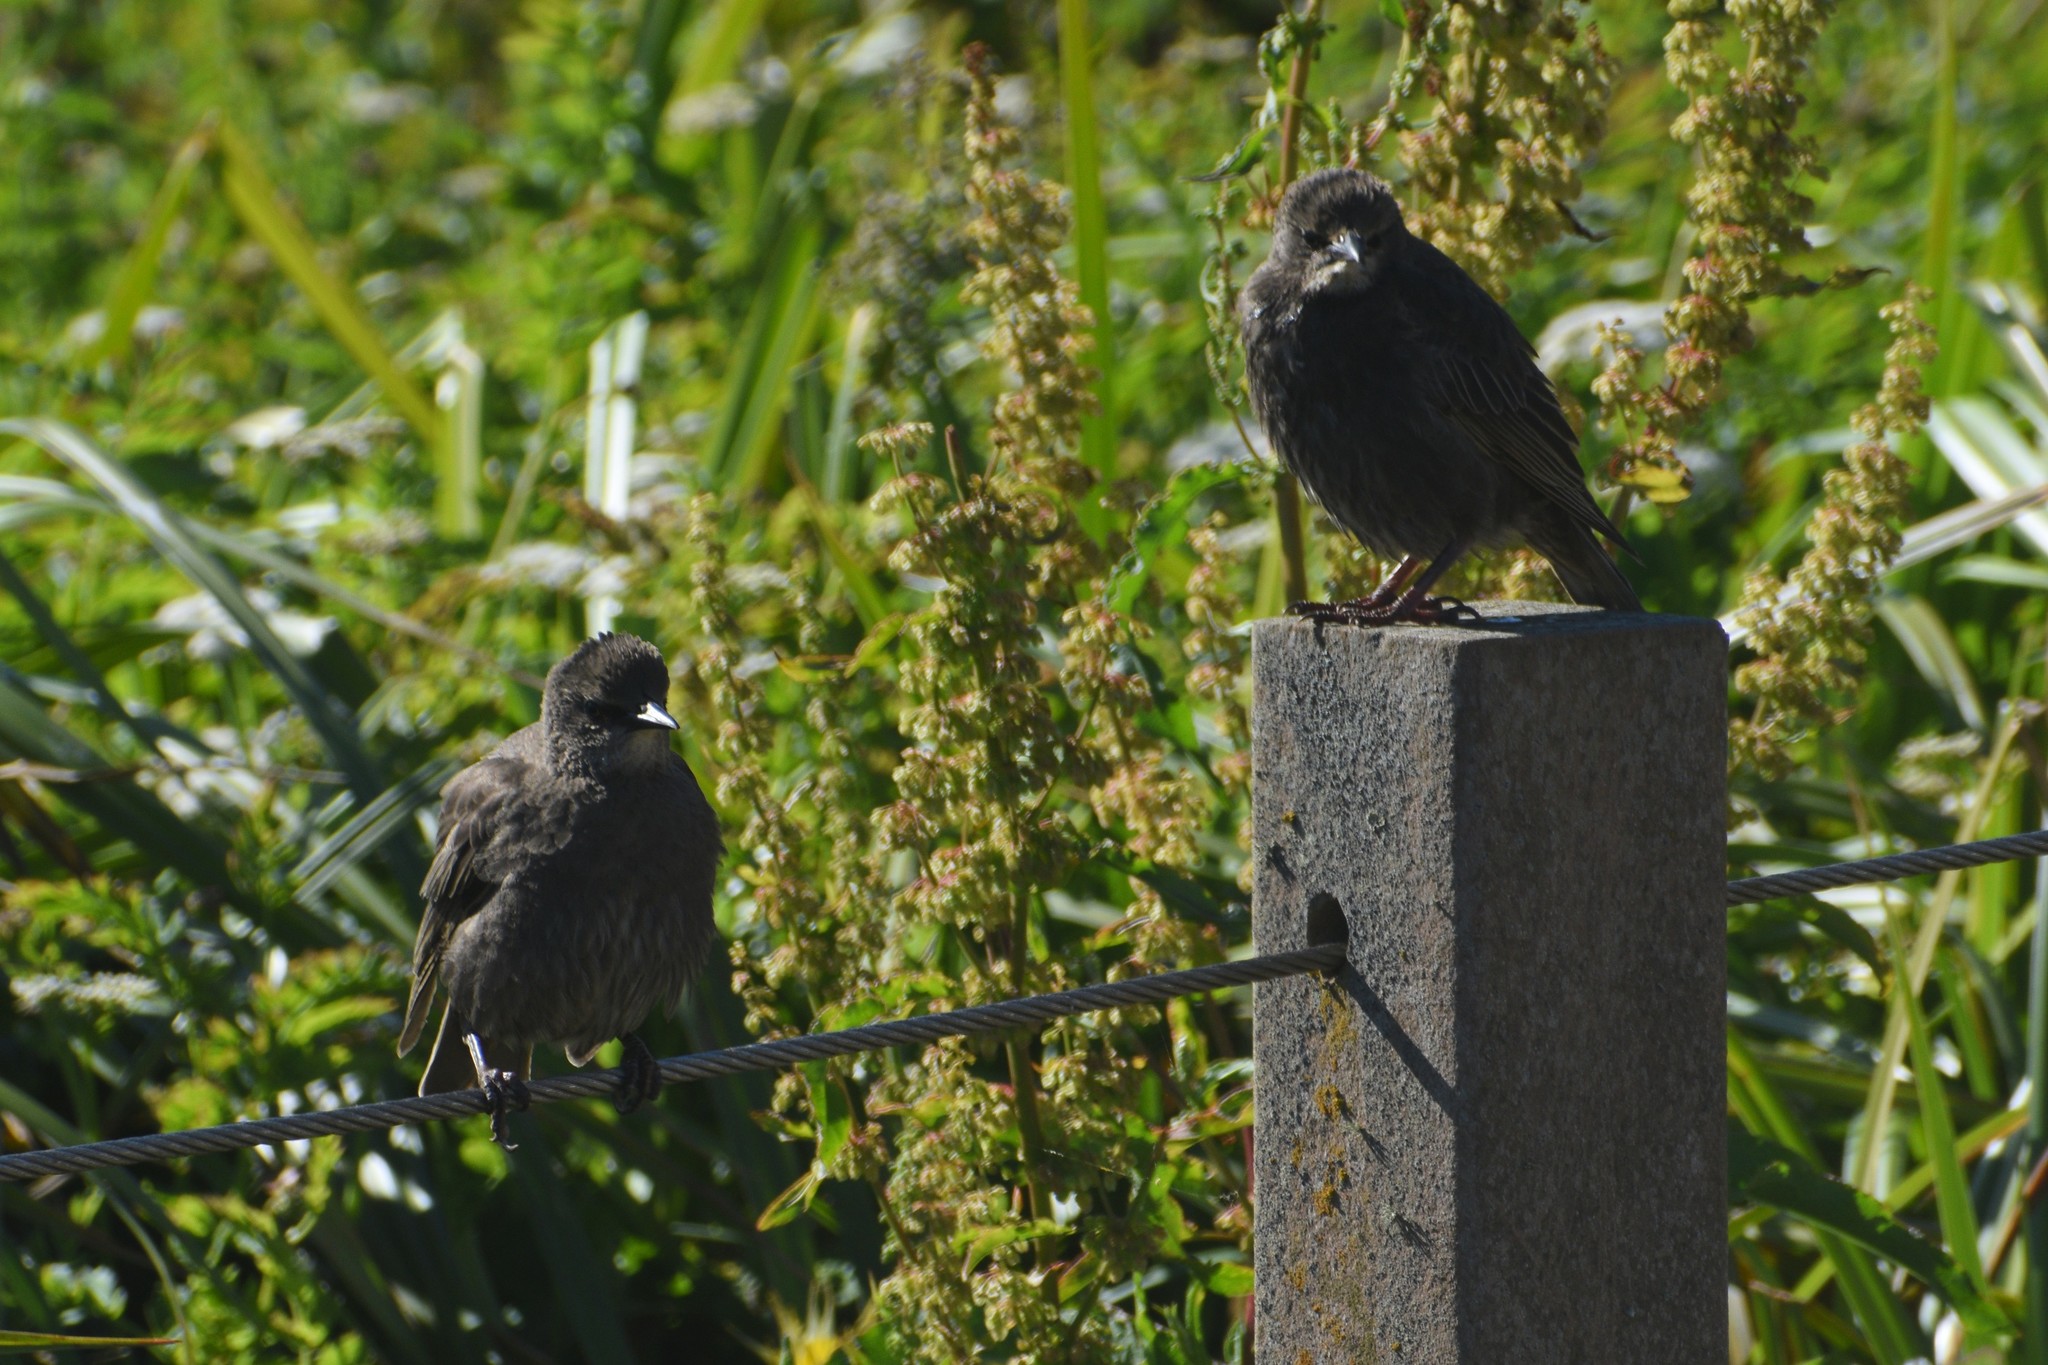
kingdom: Animalia
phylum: Chordata
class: Aves
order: Passeriformes
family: Sturnidae
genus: Sturnus
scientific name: Sturnus vulgaris
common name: Common starling
